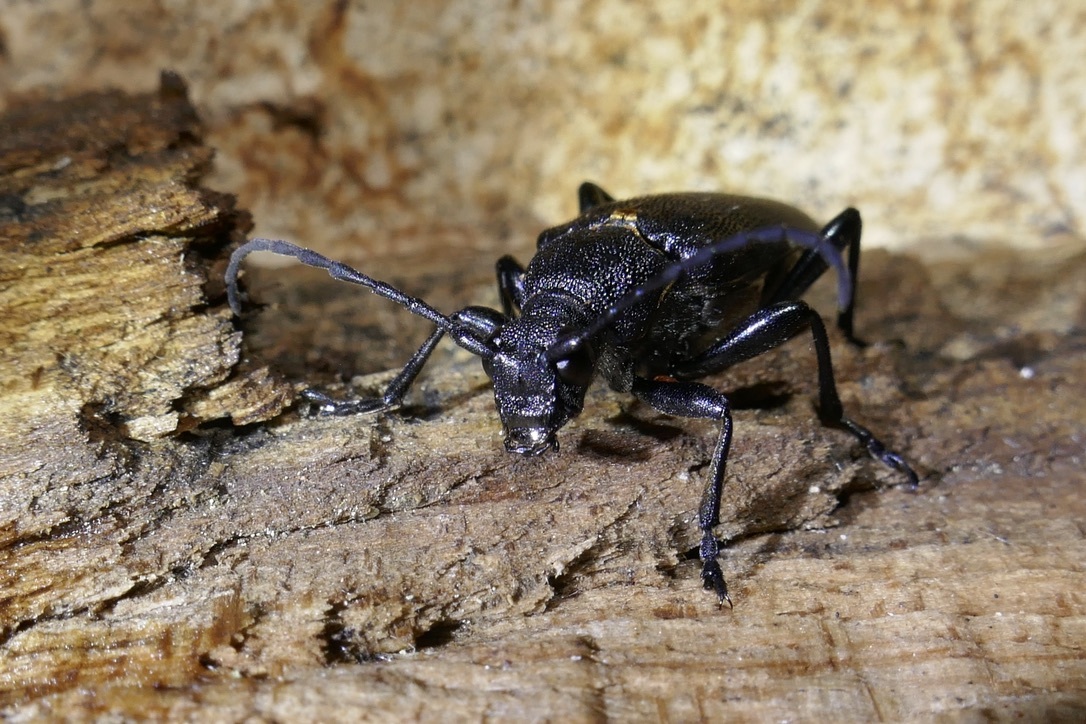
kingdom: Animalia
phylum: Arthropoda
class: Insecta
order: Coleoptera
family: Cerambycidae
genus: Stictoleptura
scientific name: Stictoleptura scutellata
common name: Large black longhorn beetle
